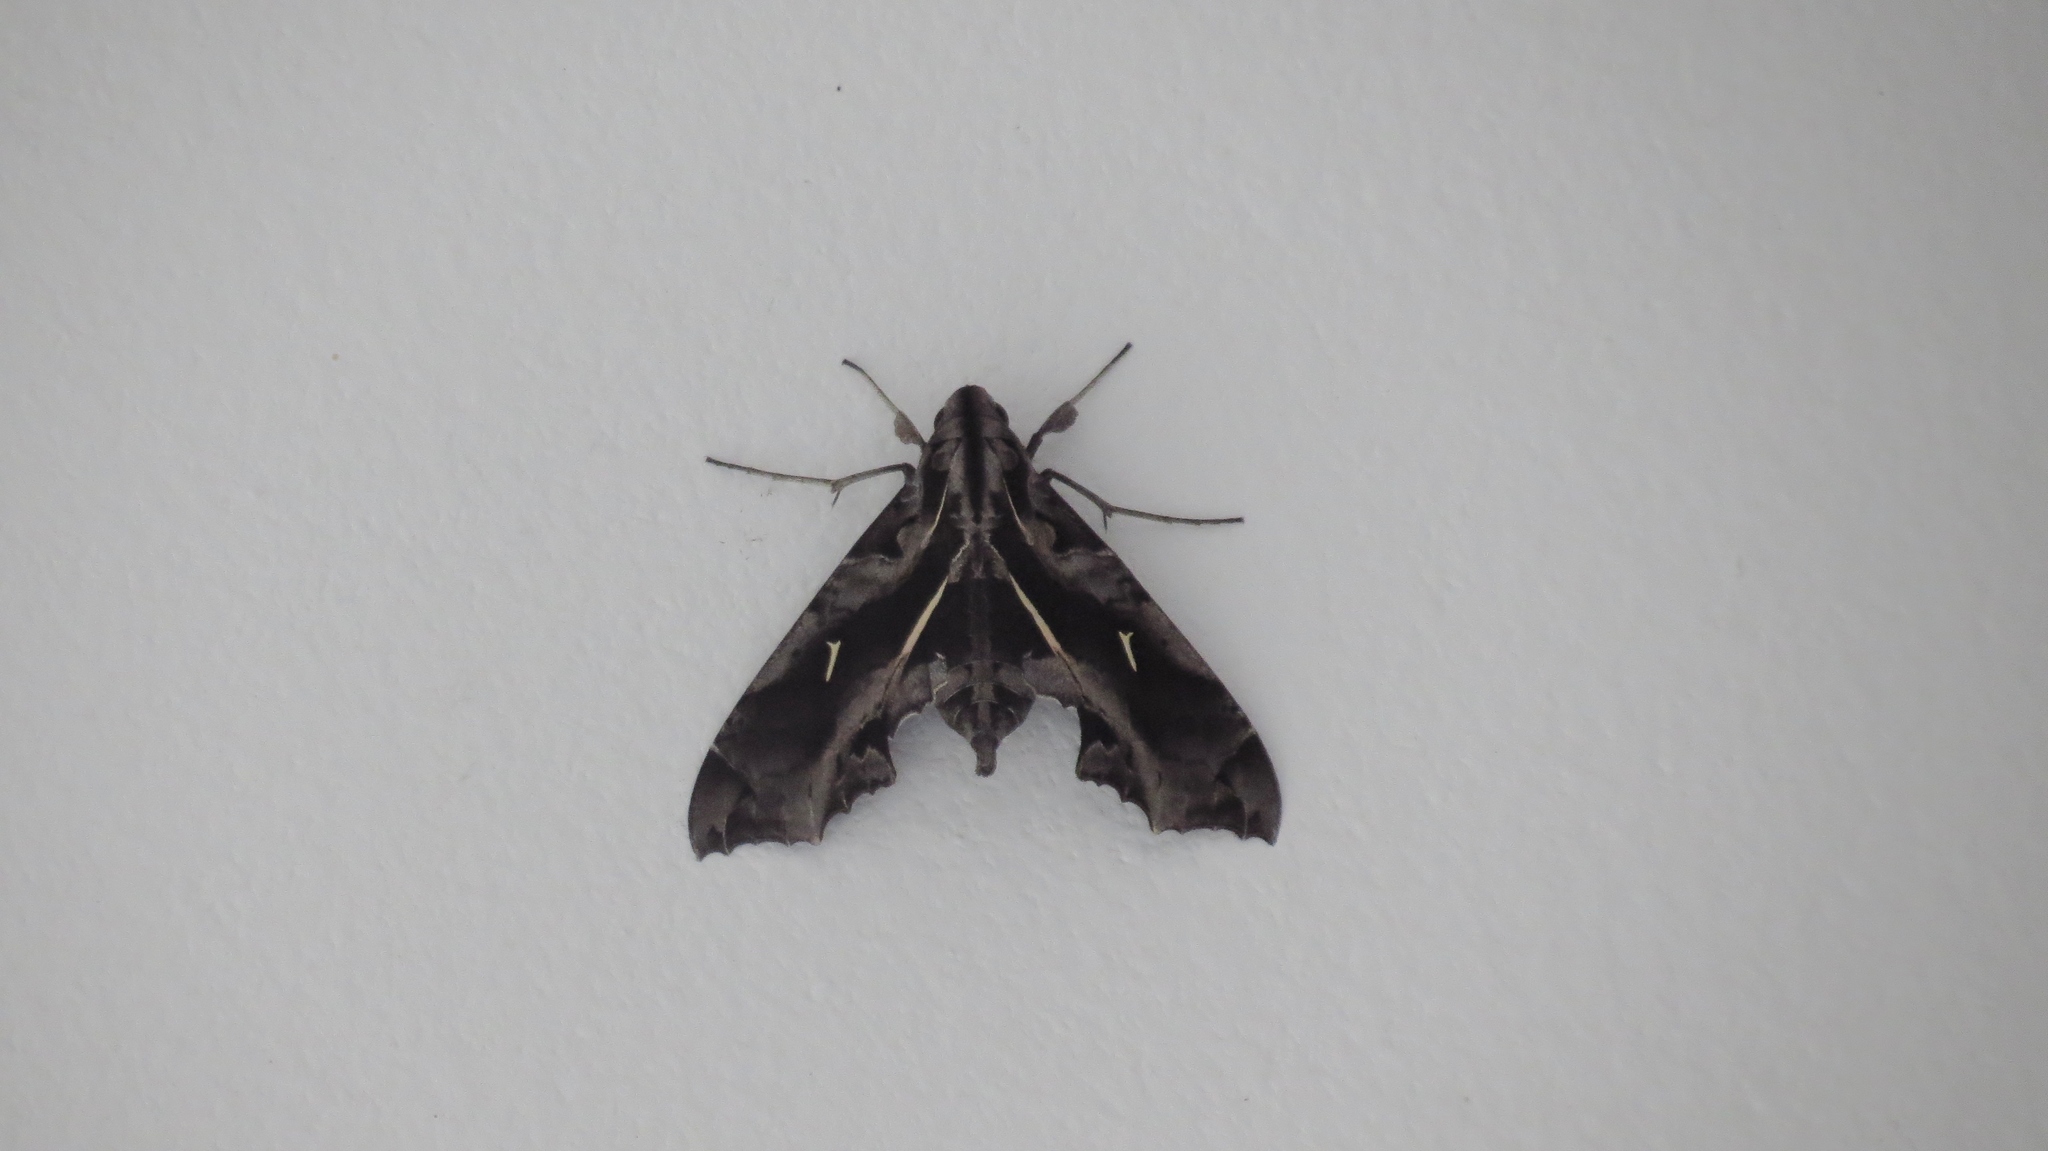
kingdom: Animalia
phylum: Arthropoda
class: Insecta
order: Lepidoptera
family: Sphingidae
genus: Hemeroplanes
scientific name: Hemeroplanes triptolemus
